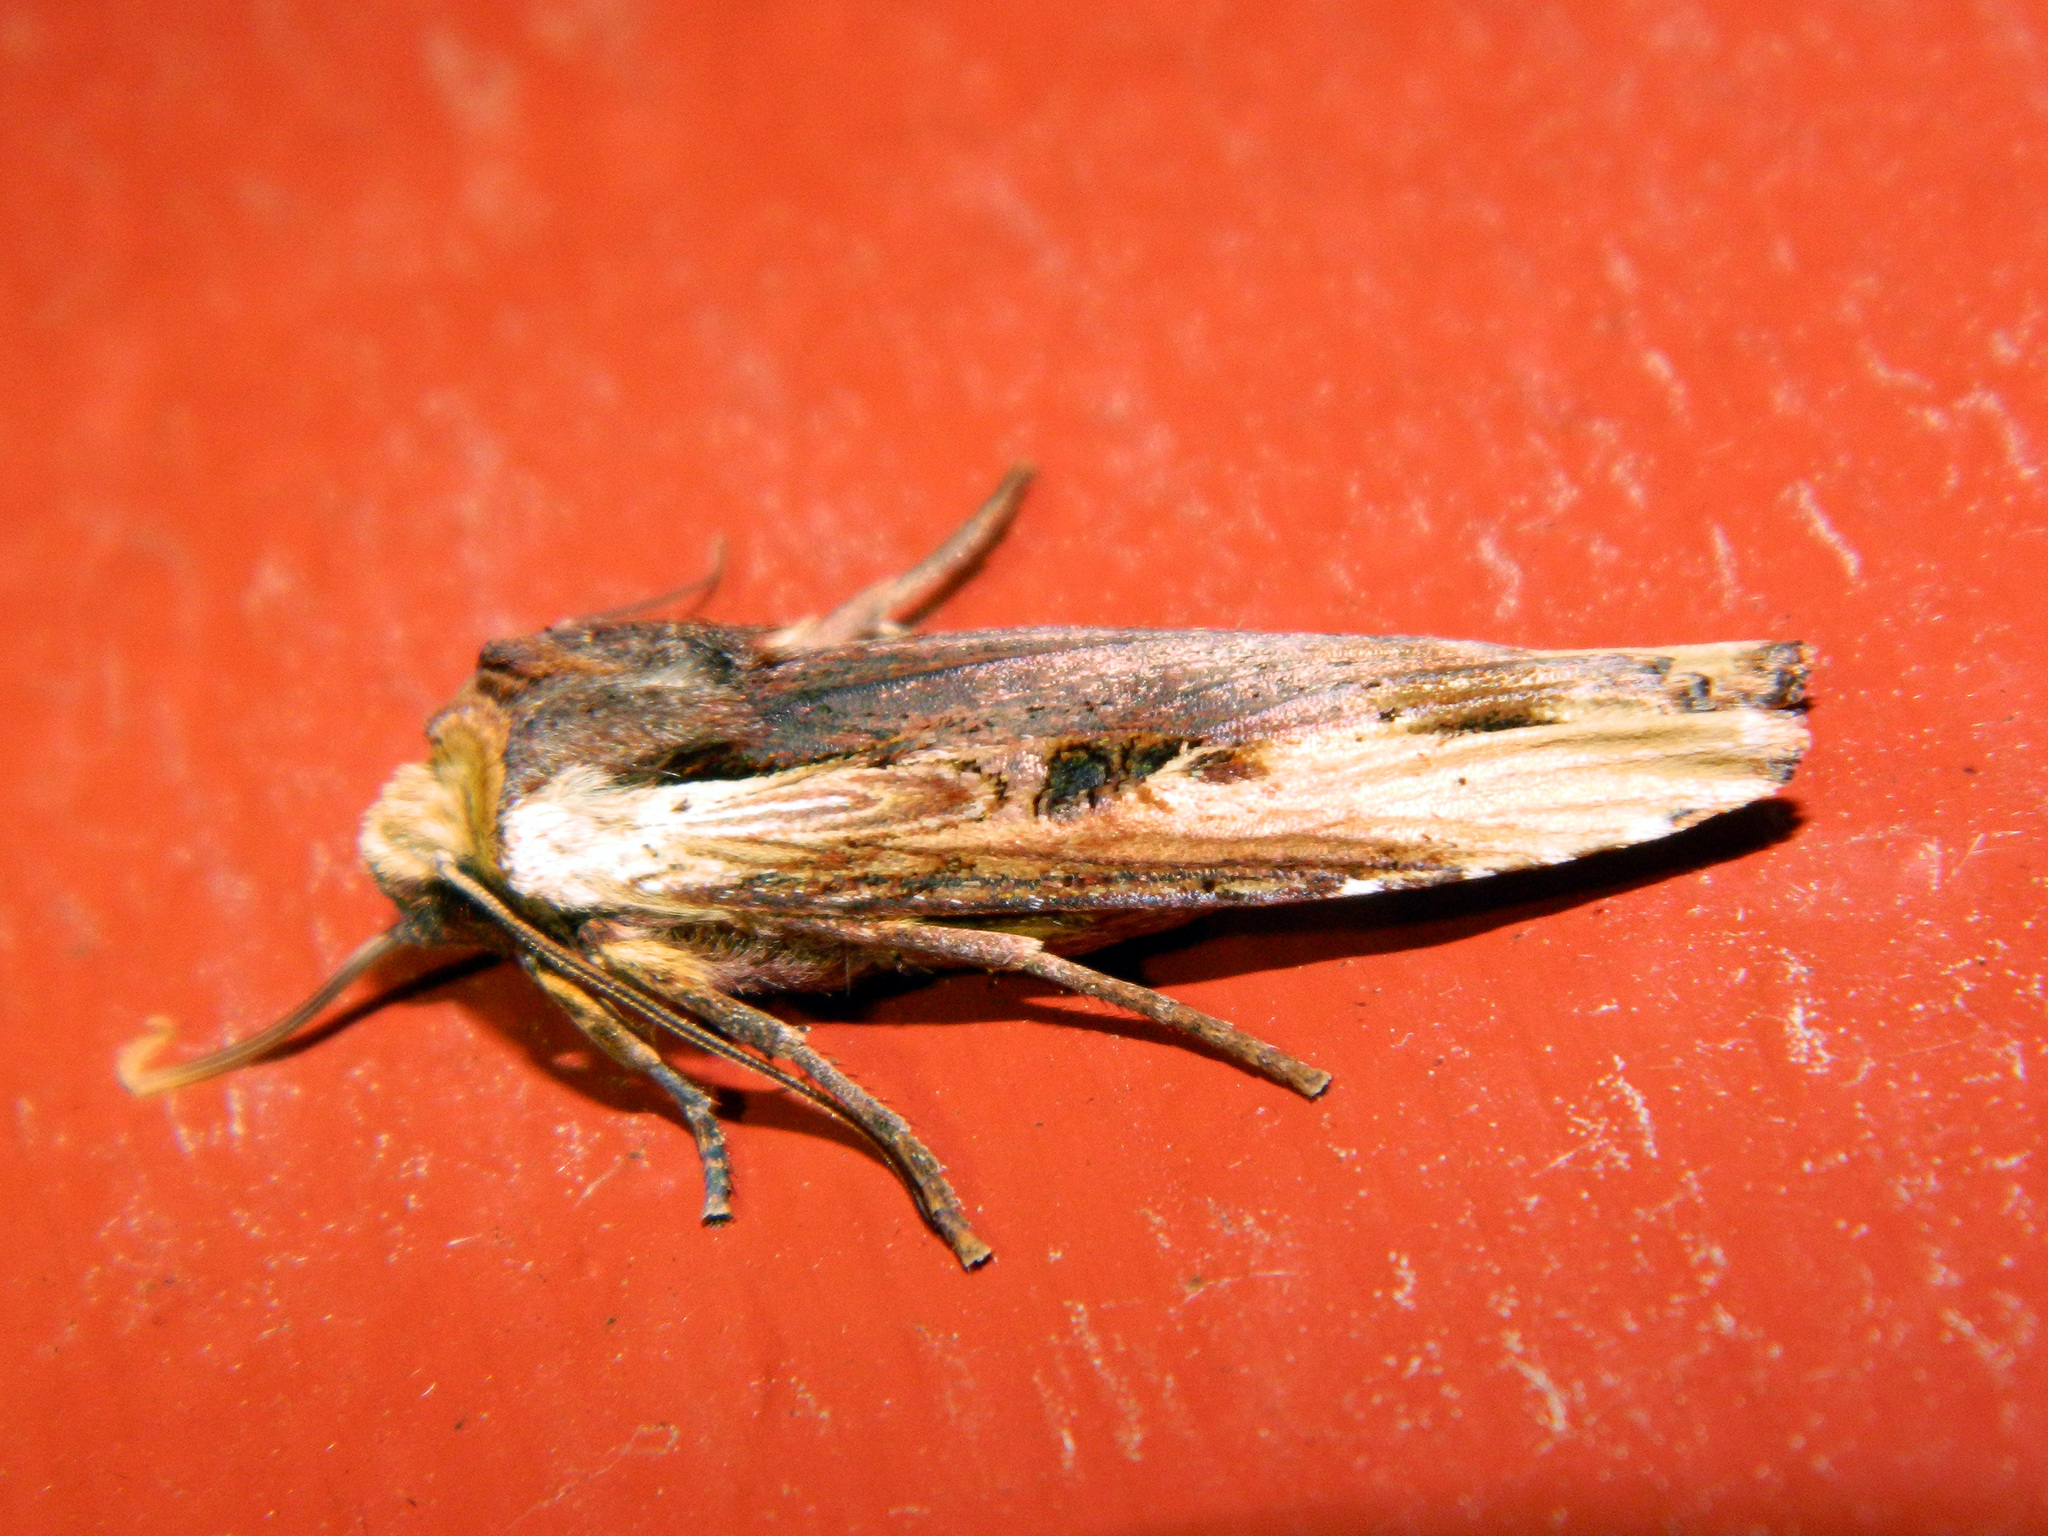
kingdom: Animalia
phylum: Arthropoda
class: Insecta
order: Lepidoptera
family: Noctuidae
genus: Xylena
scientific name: Xylena curvimacula
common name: Dot-and-dash swordgrass moth
